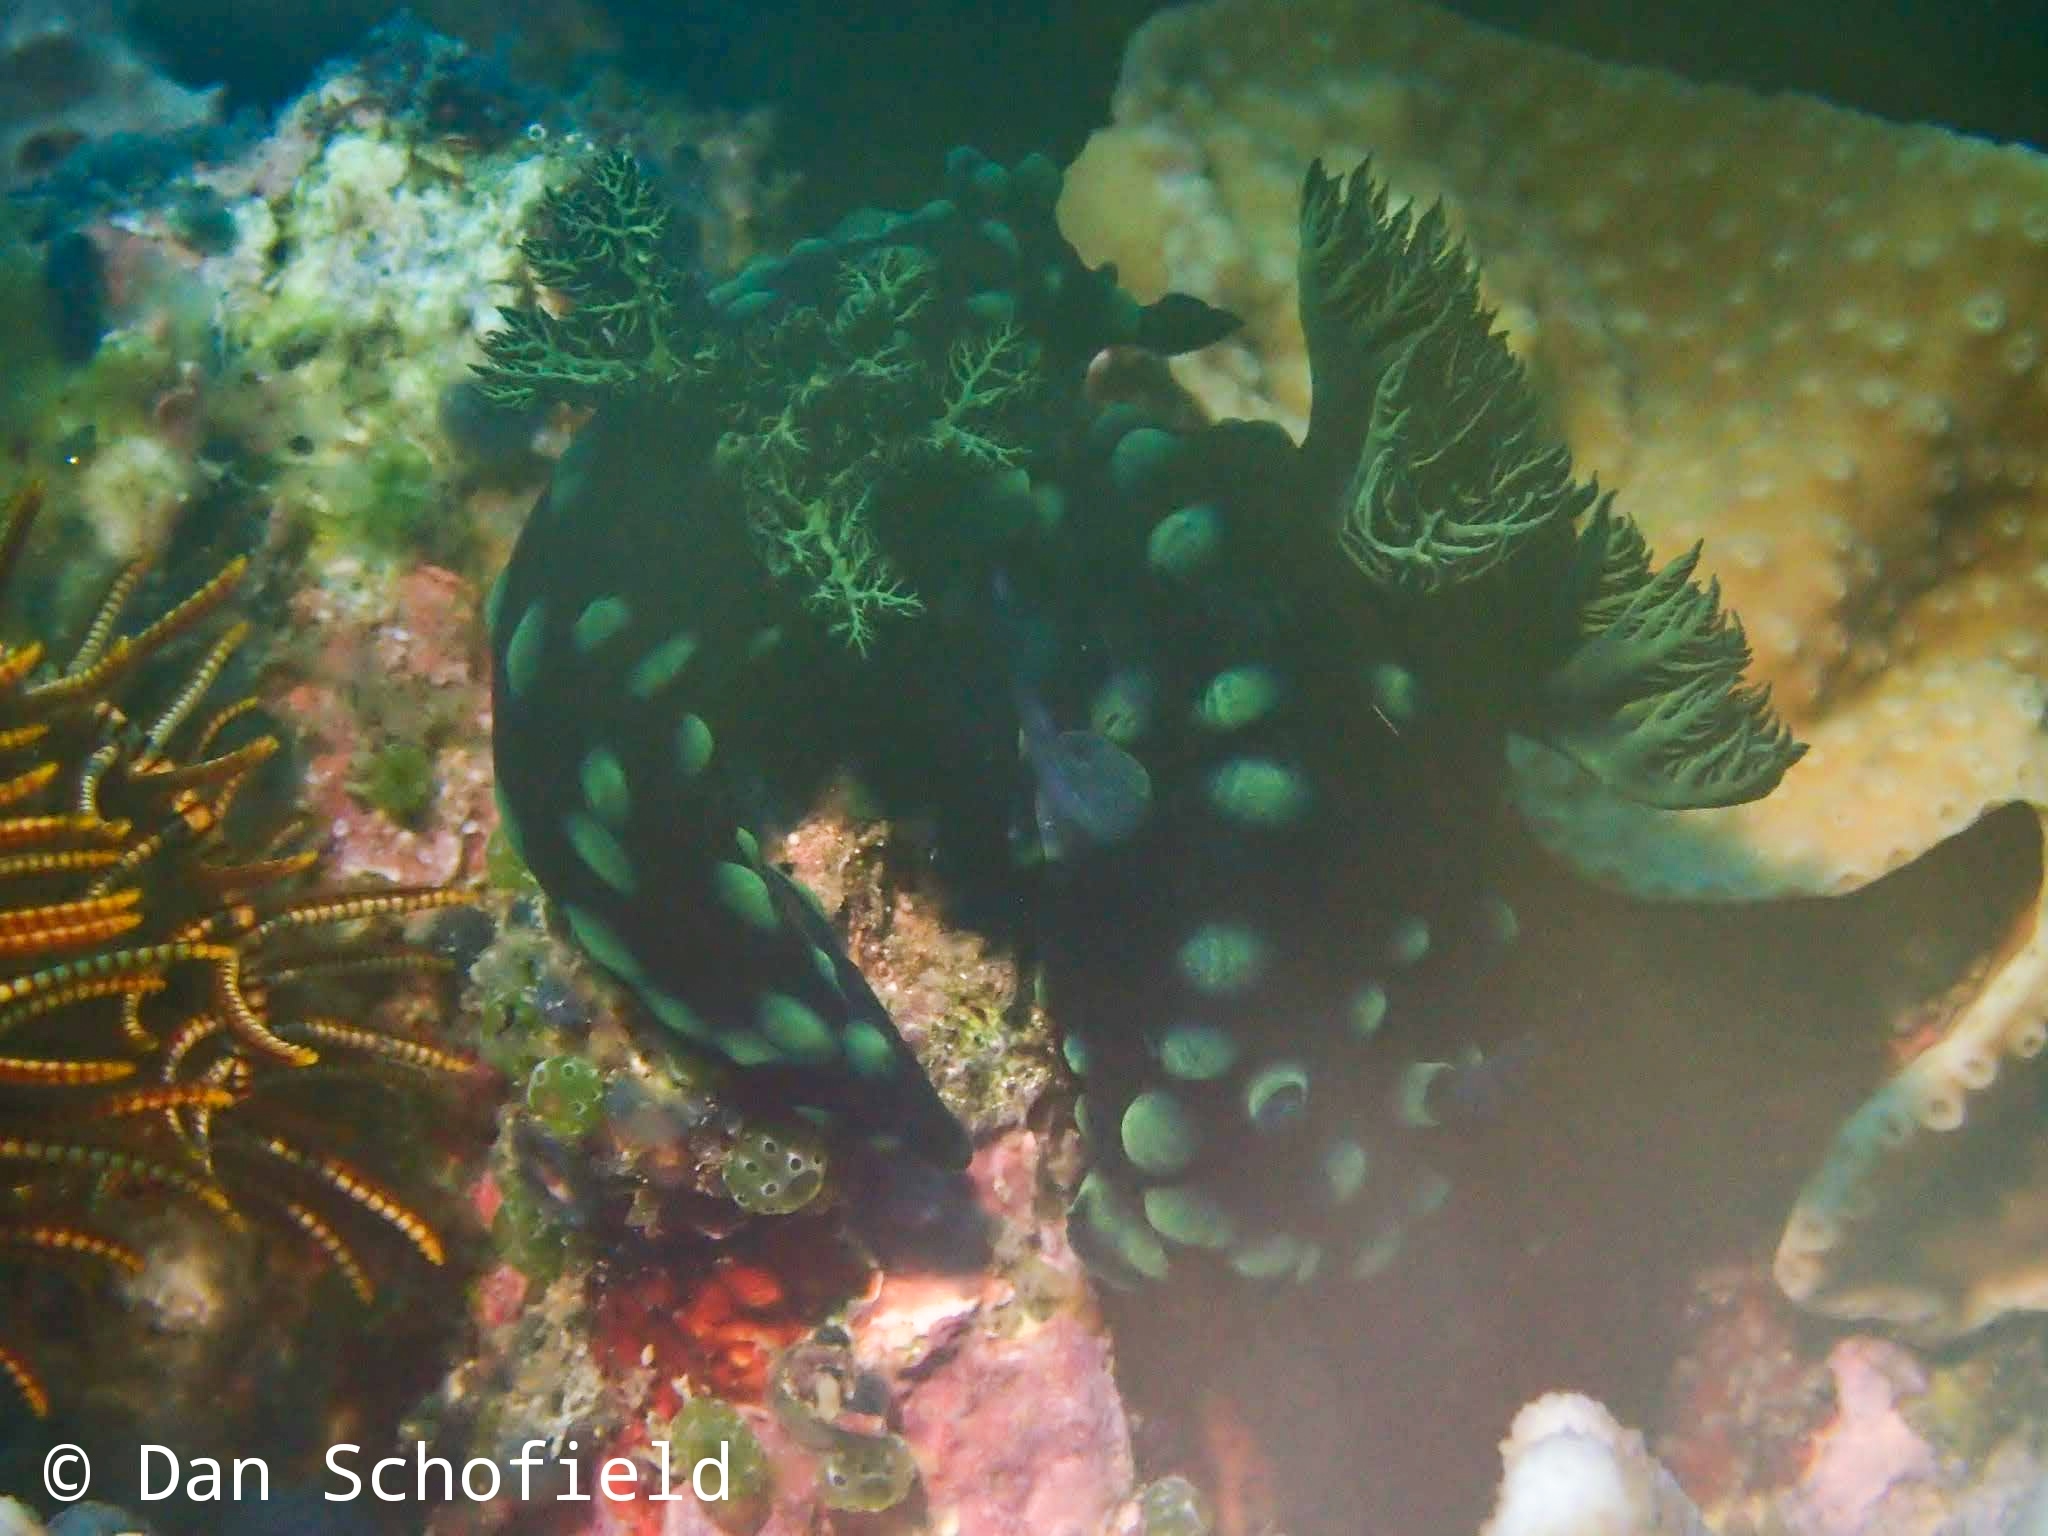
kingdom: Animalia
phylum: Mollusca
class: Gastropoda
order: Nudibranchia
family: Polyceridae
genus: Nembrotha
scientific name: Nembrotha cristata
